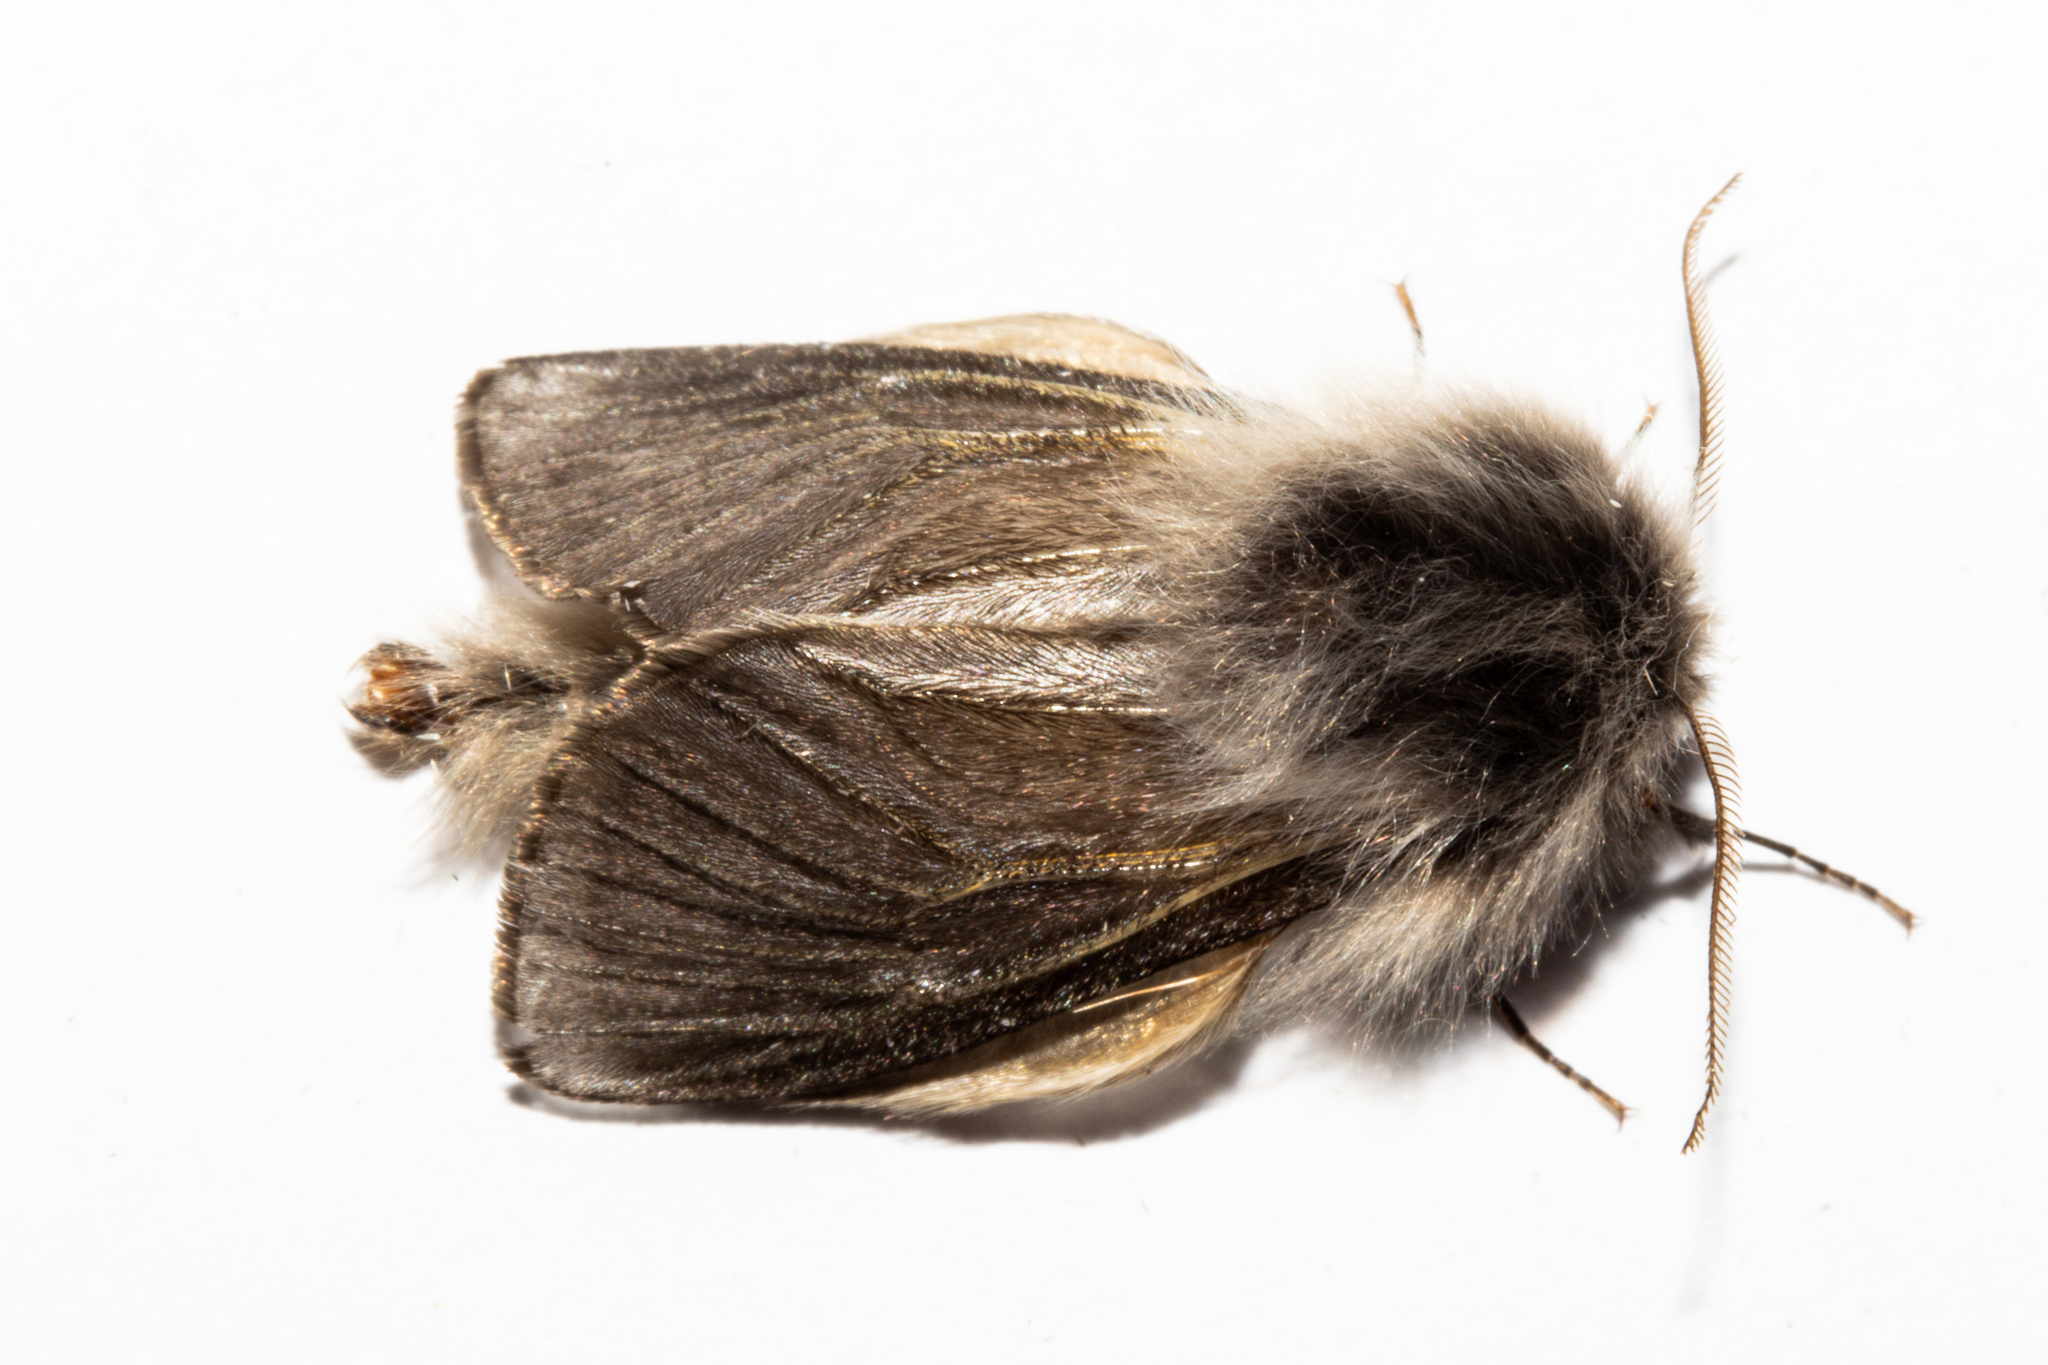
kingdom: Animalia
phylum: Arthropoda
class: Insecta
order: Lepidoptera
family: Psychidae
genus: Orophora
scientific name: Orophora unicolor
